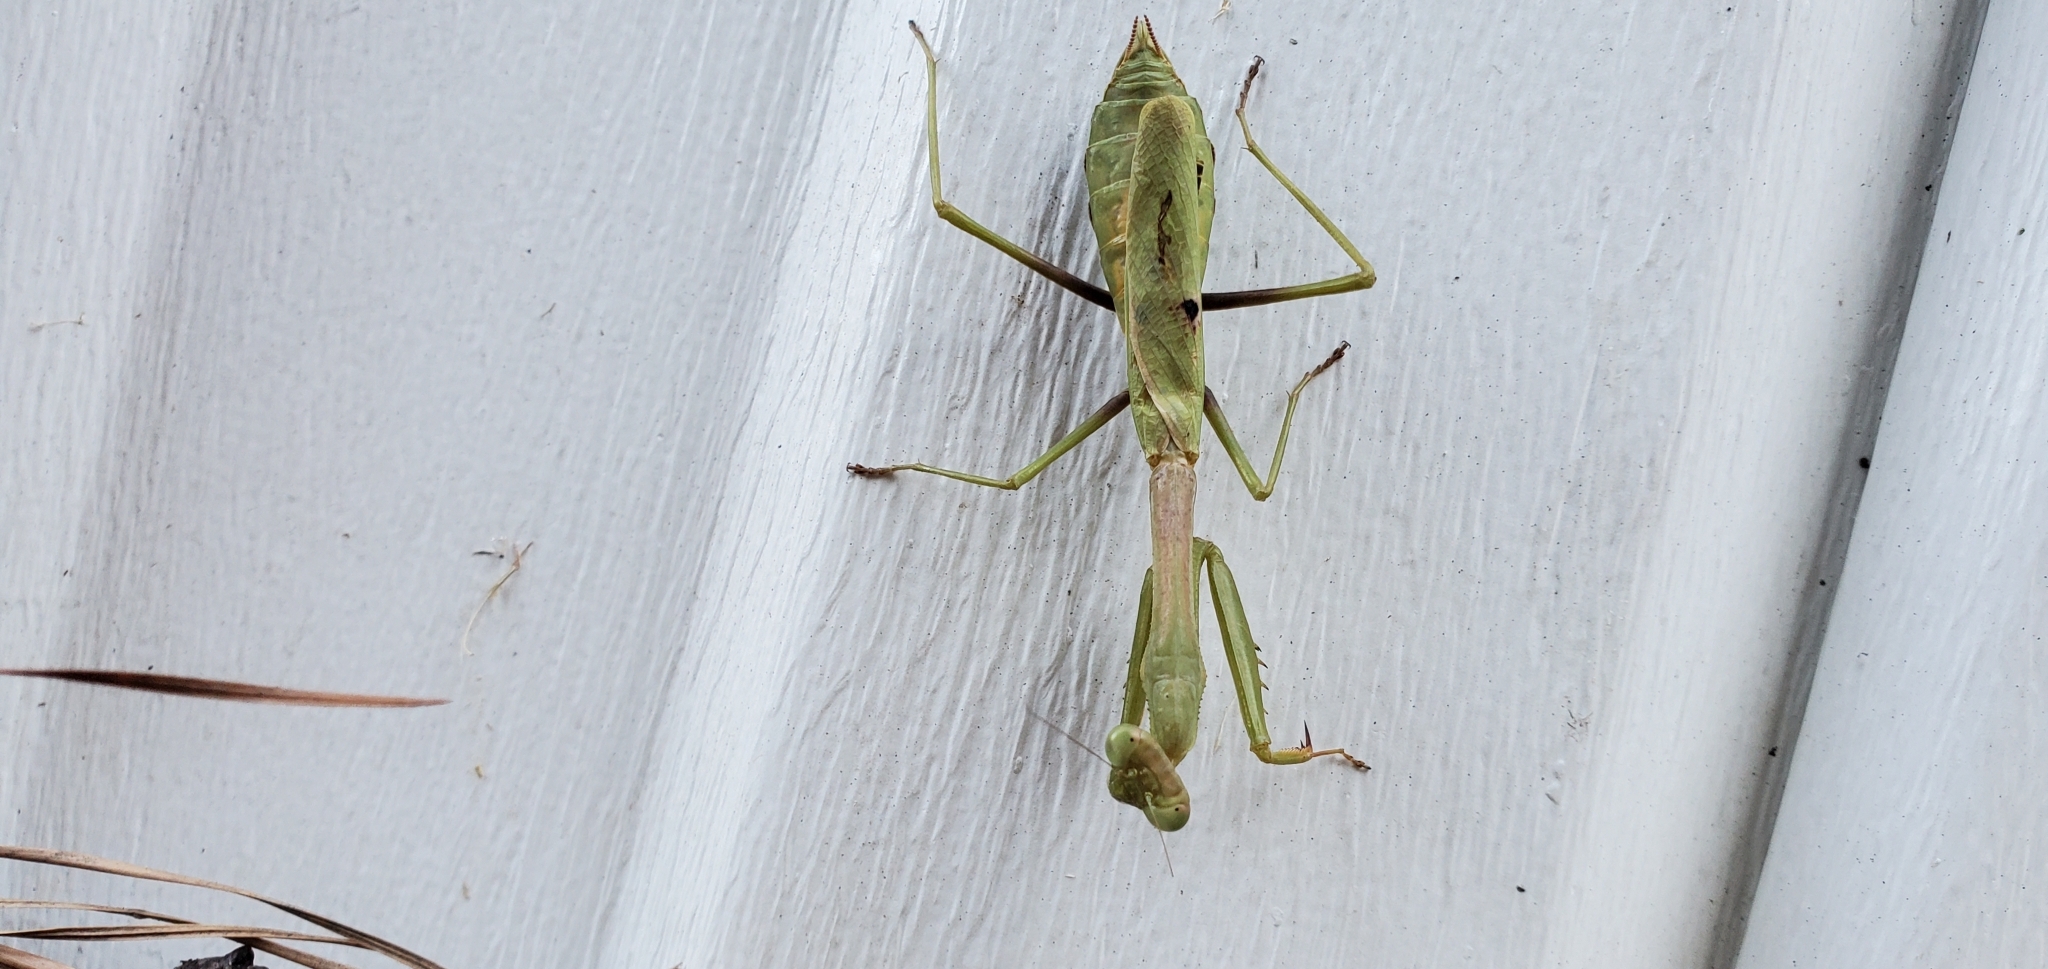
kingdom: Animalia
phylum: Arthropoda
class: Insecta
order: Mantodea
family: Mantidae
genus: Stagmomantis
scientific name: Stagmomantis carolina
